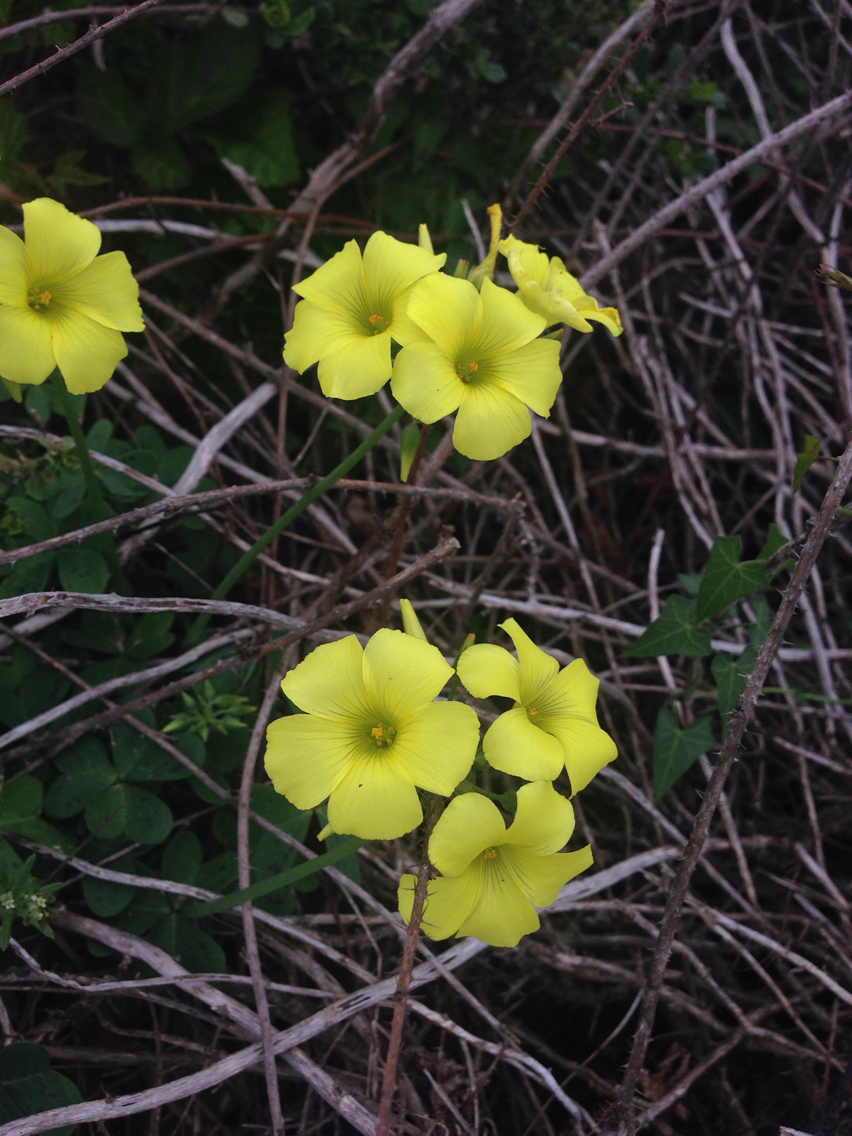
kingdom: Plantae
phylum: Tracheophyta
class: Magnoliopsida
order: Oxalidales
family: Oxalidaceae
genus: Oxalis
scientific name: Oxalis pes-caprae
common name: Bermuda-buttercup
